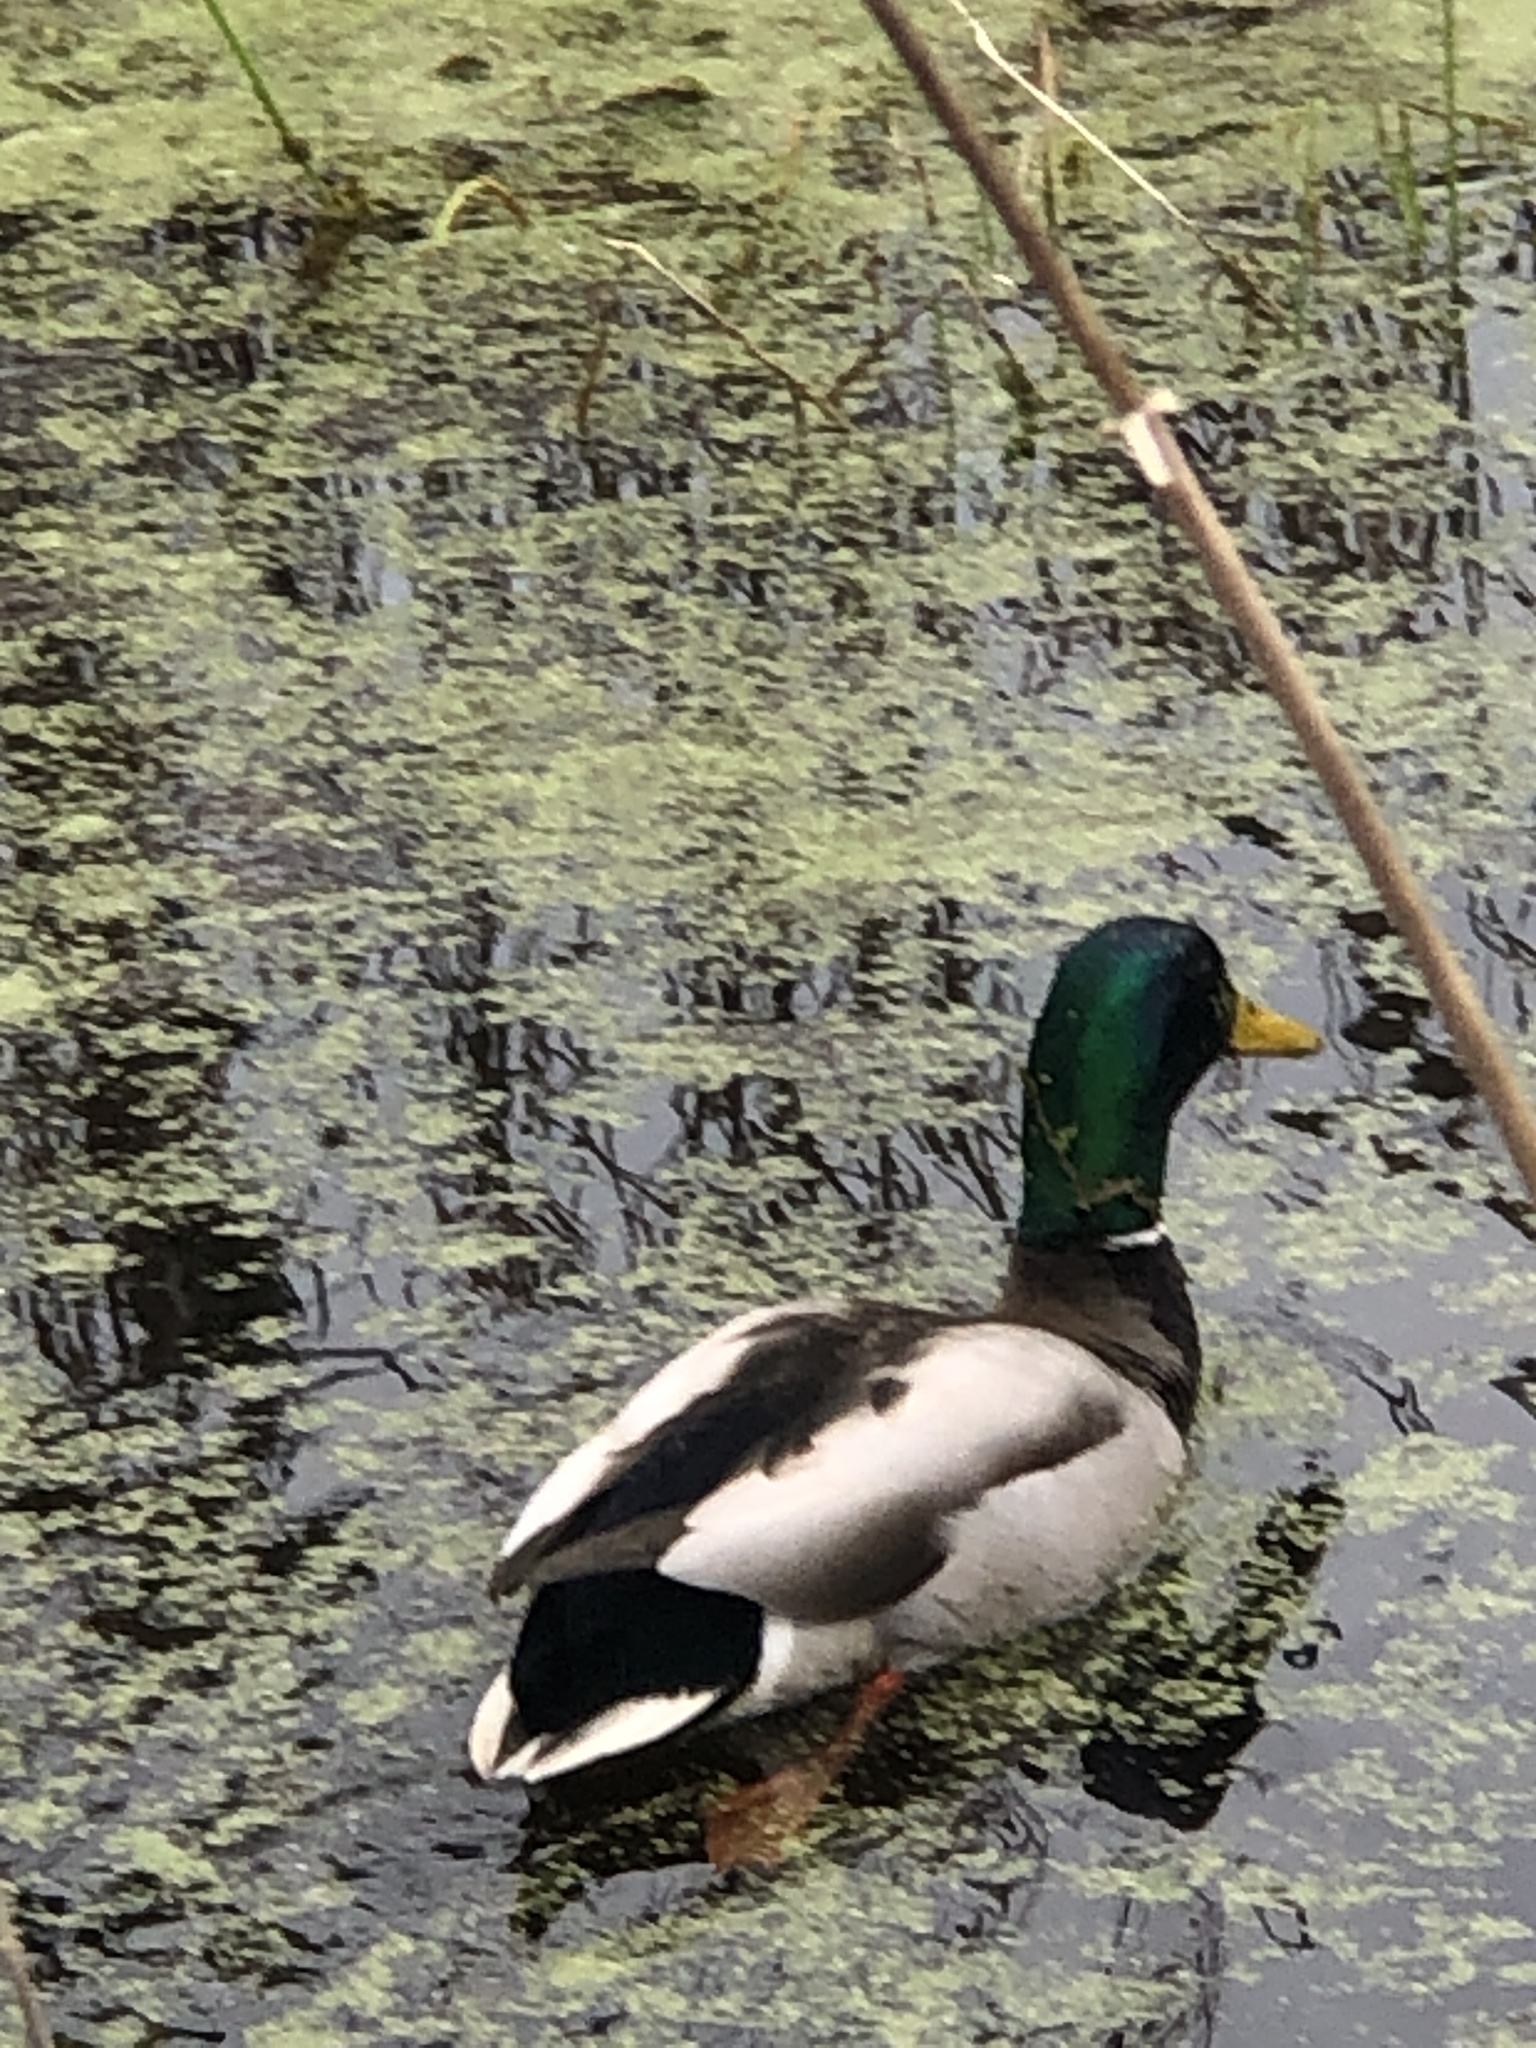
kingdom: Animalia
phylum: Chordata
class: Aves
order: Anseriformes
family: Anatidae
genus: Anas
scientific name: Anas platyrhynchos
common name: Mallard
